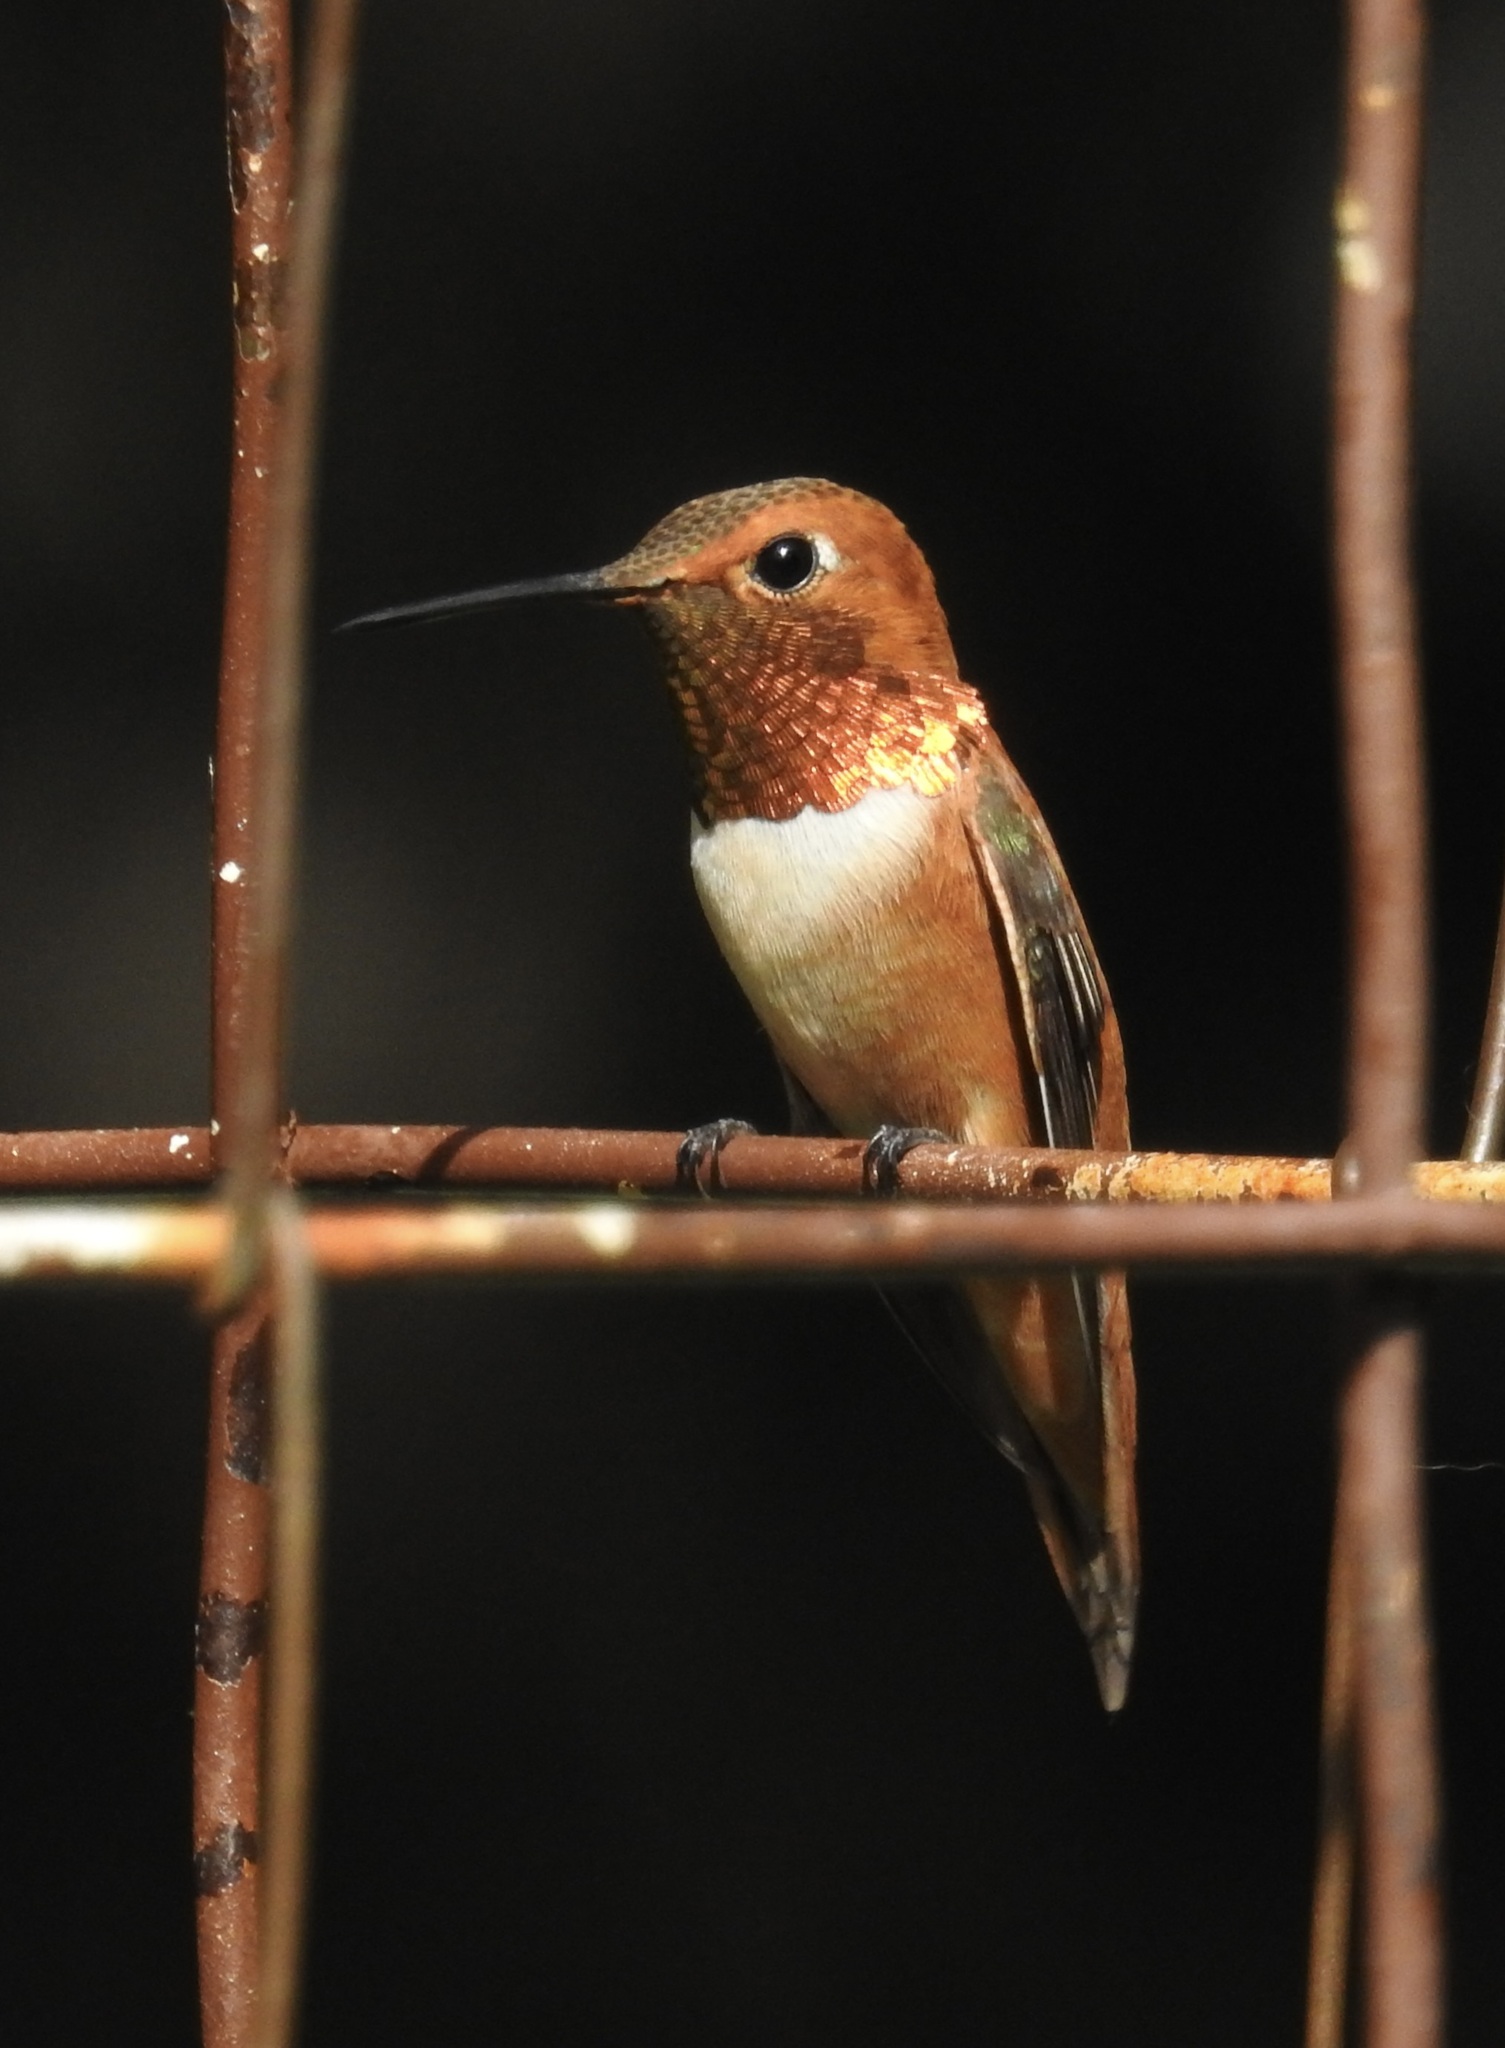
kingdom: Animalia
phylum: Chordata
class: Aves
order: Apodiformes
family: Trochilidae
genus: Selasphorus
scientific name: Selasphorus rufus
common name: Rufous hummingbird
